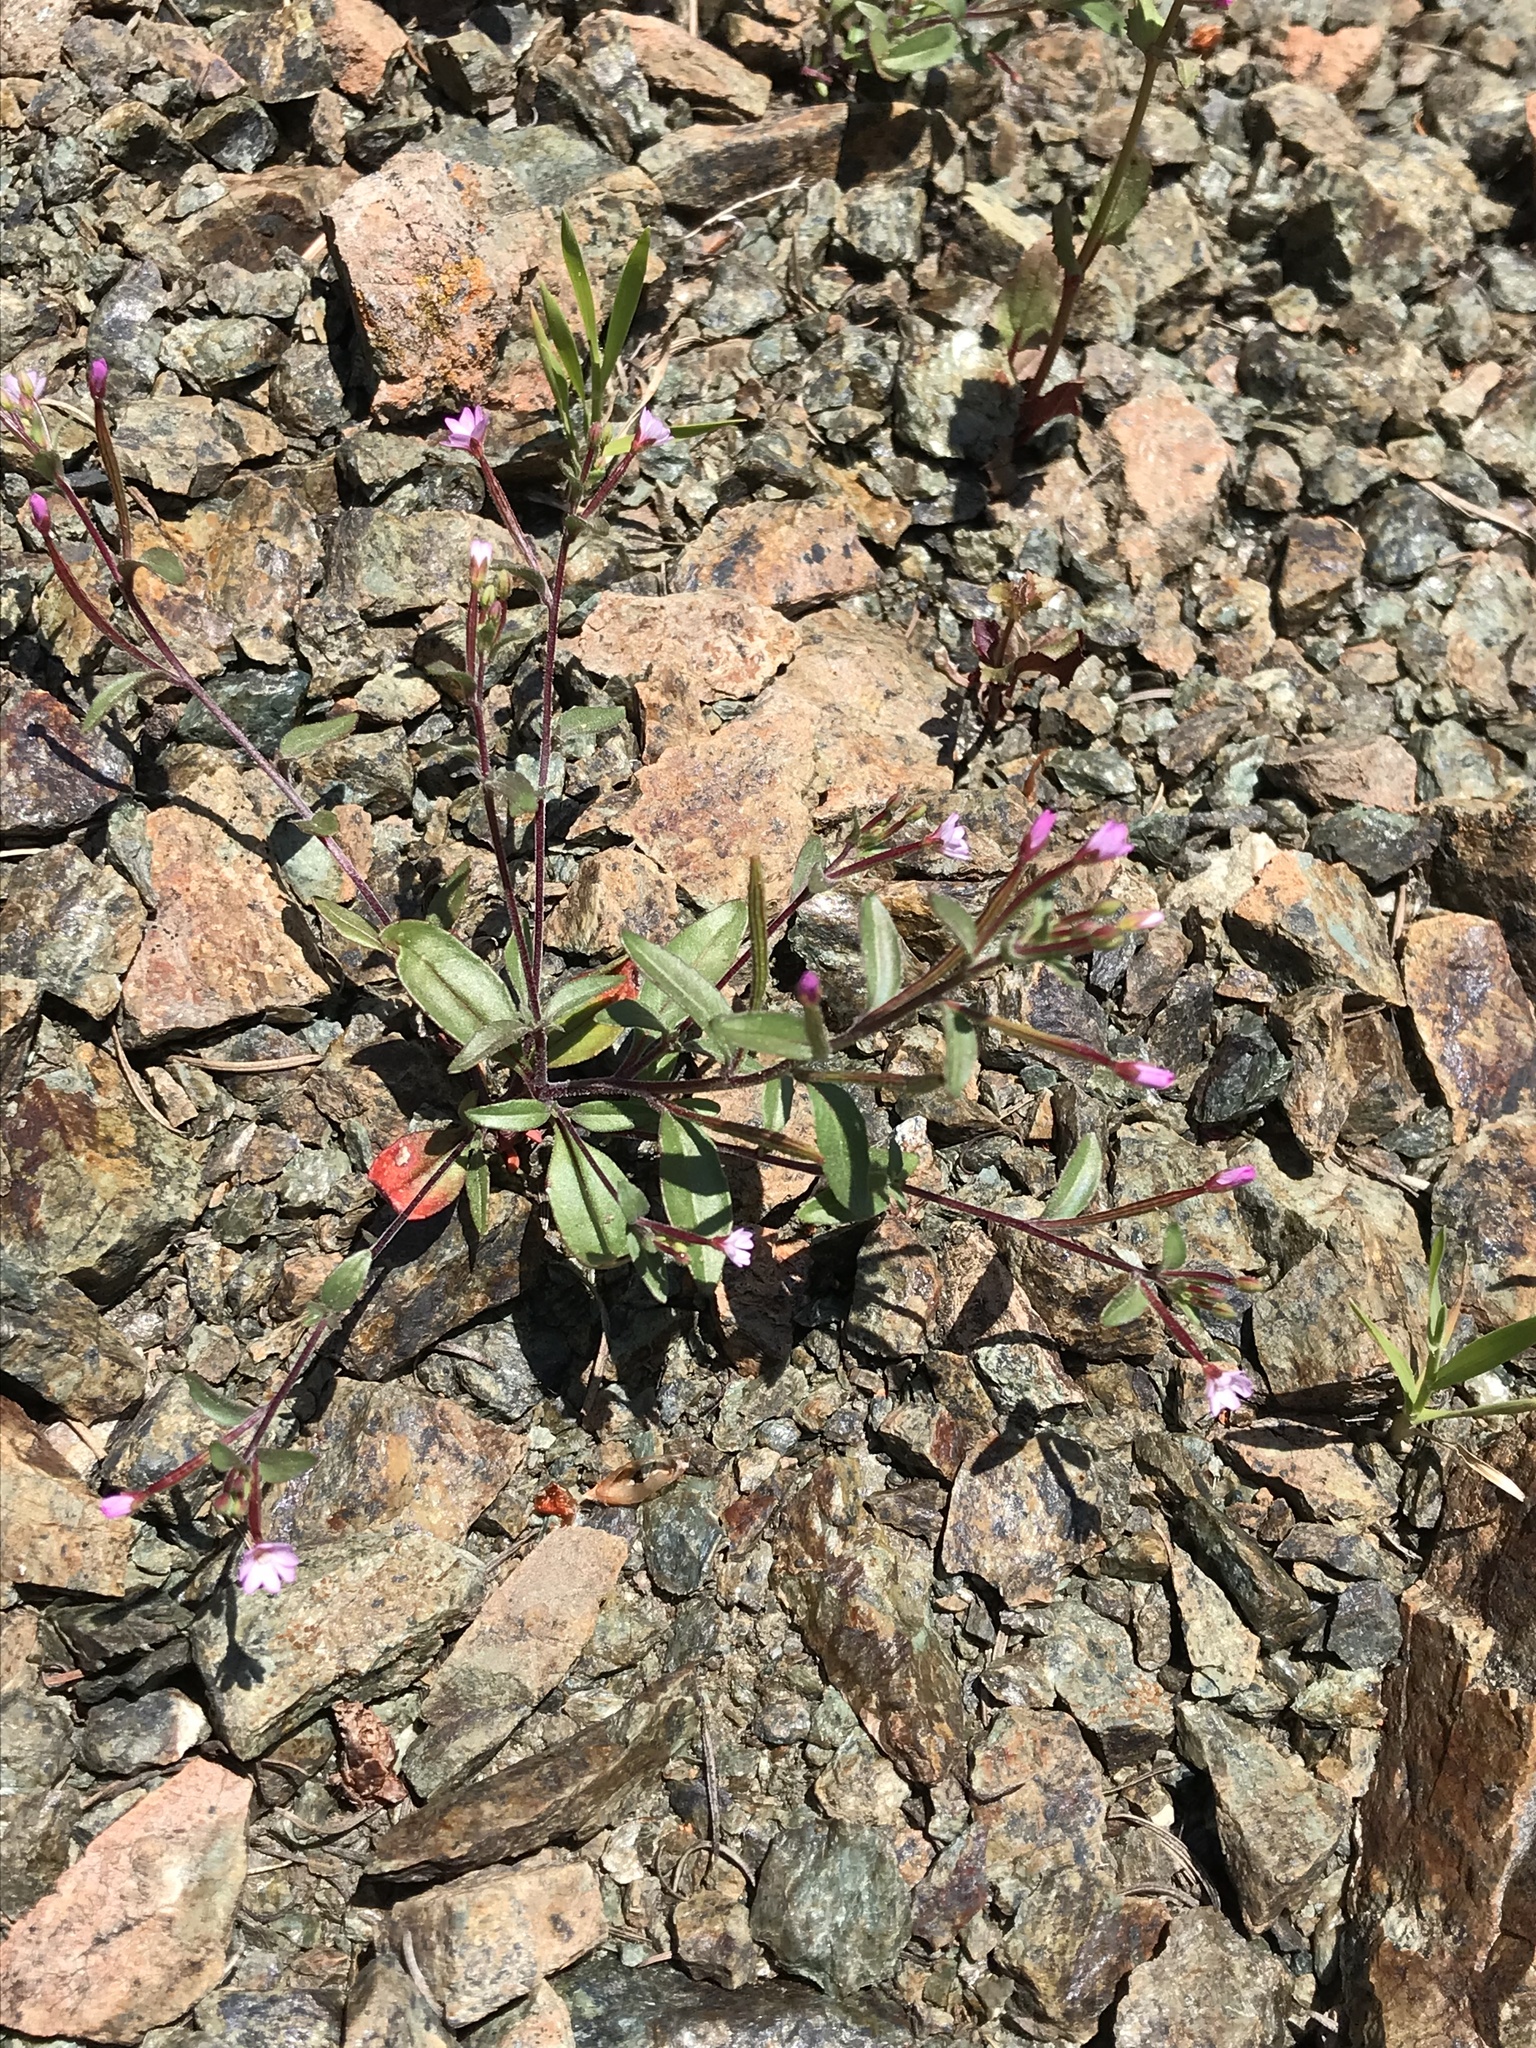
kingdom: Plantae
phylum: Tracheophyta
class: Magnoliopsida
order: Myrtales
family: Onagraceae
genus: Epilobium
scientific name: Epilobium minutum
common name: Chaparral willowherb
